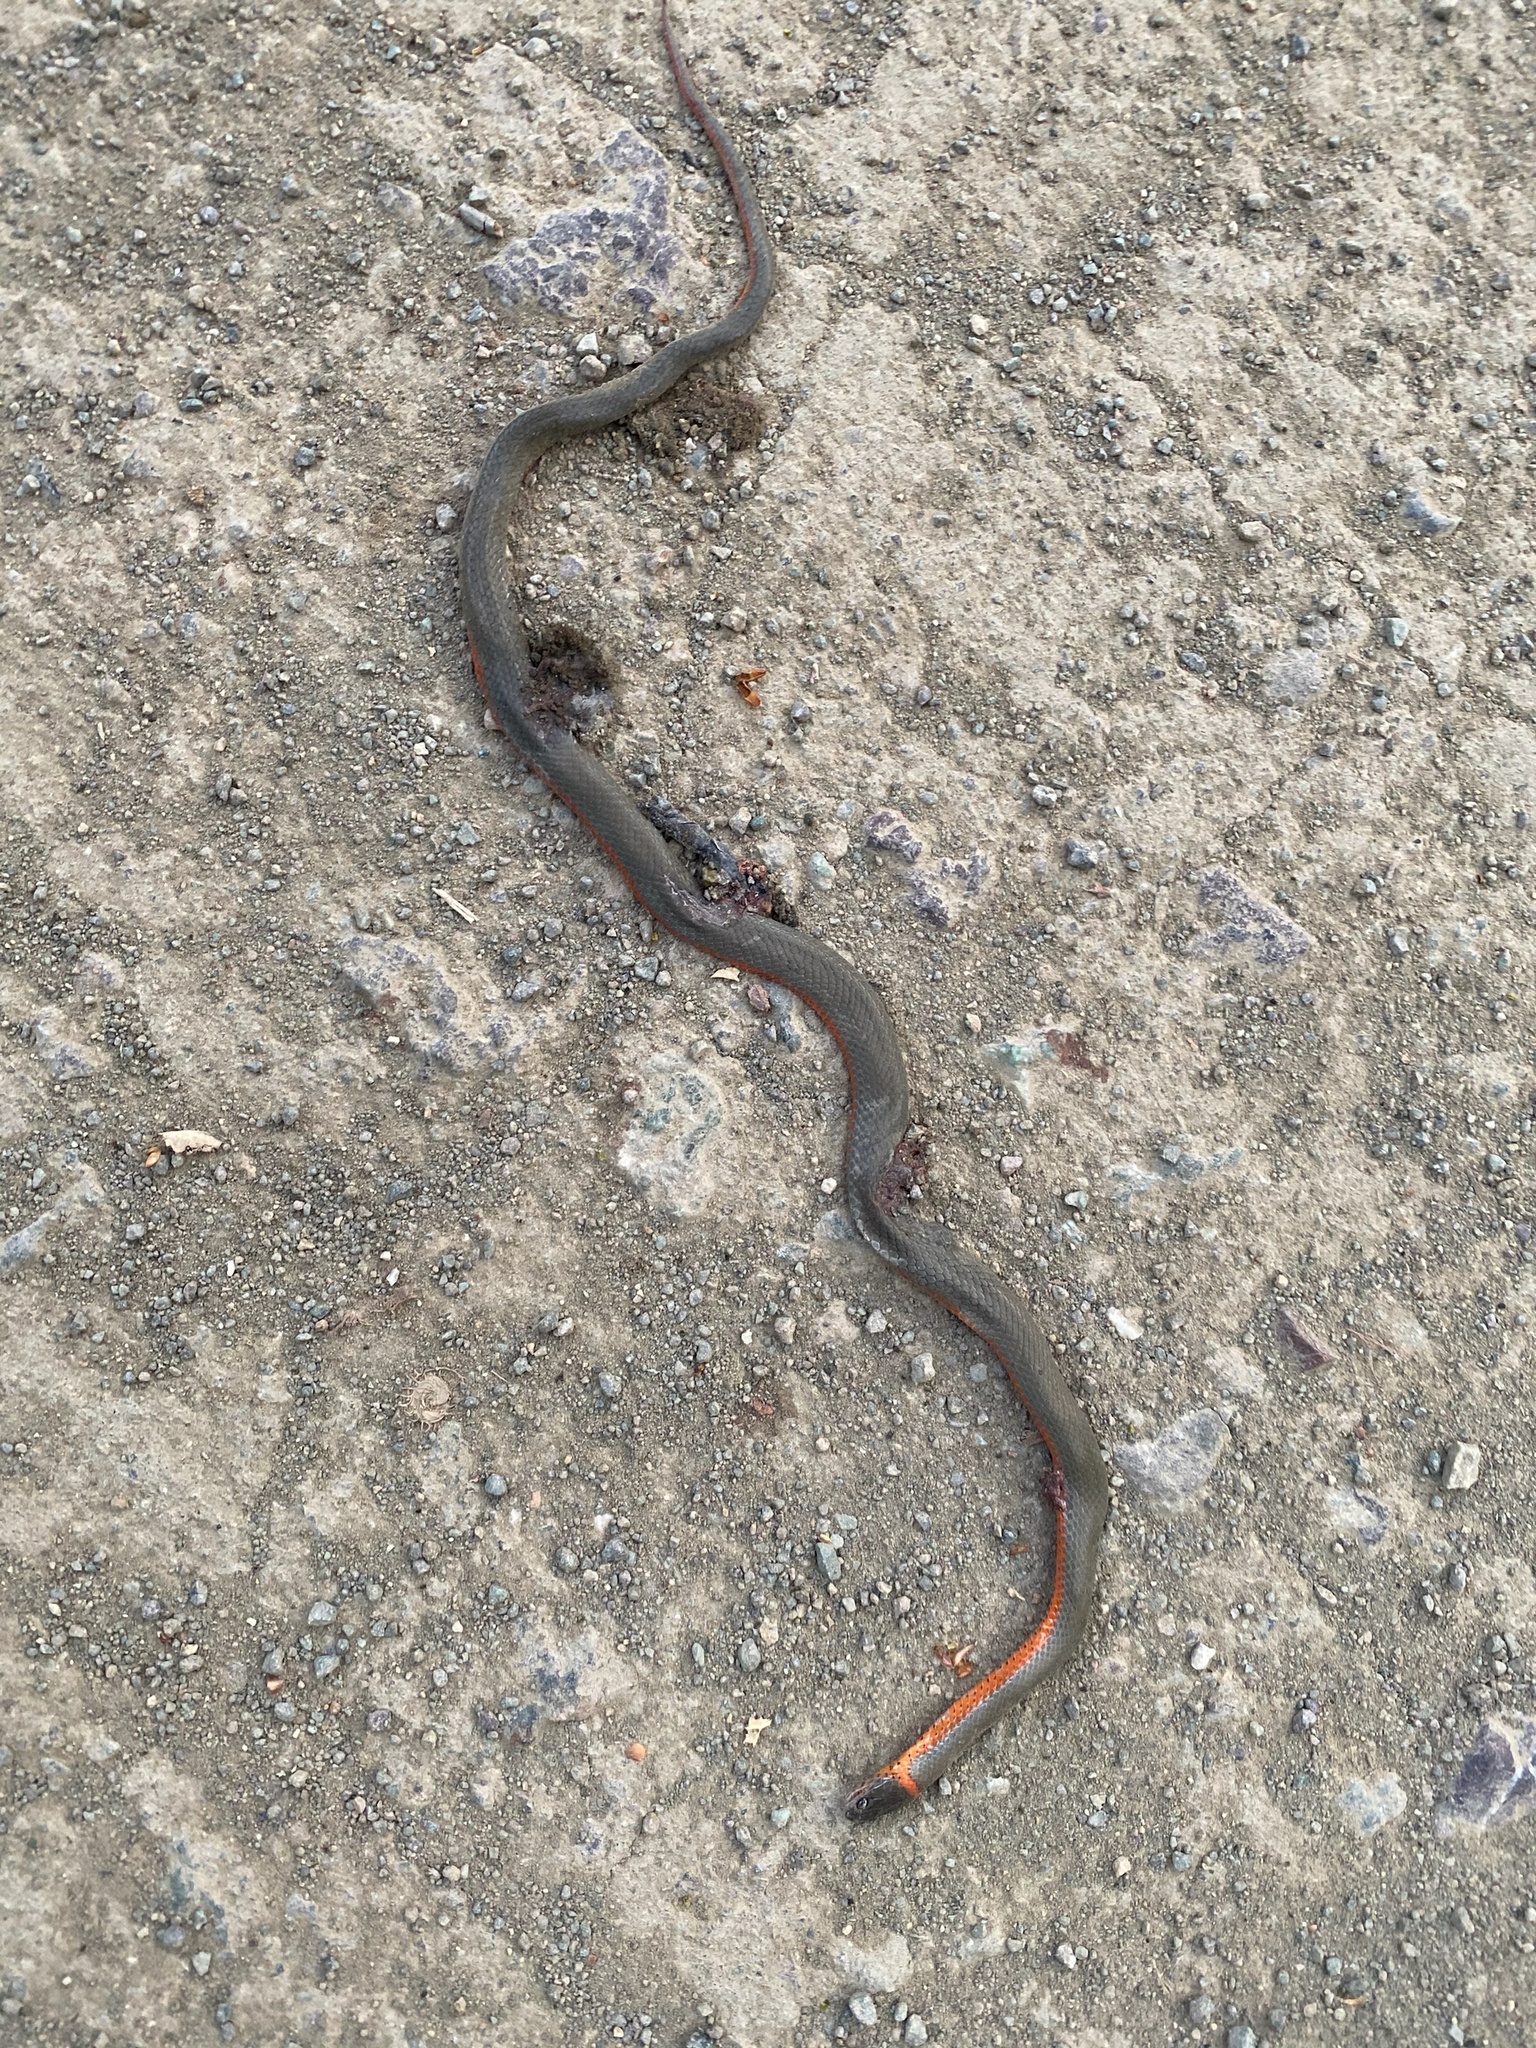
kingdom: Animalia
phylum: Chordata
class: Squamata
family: Colubridae
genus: Diadophis
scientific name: Diadophis punctatus
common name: Ringneck snake
